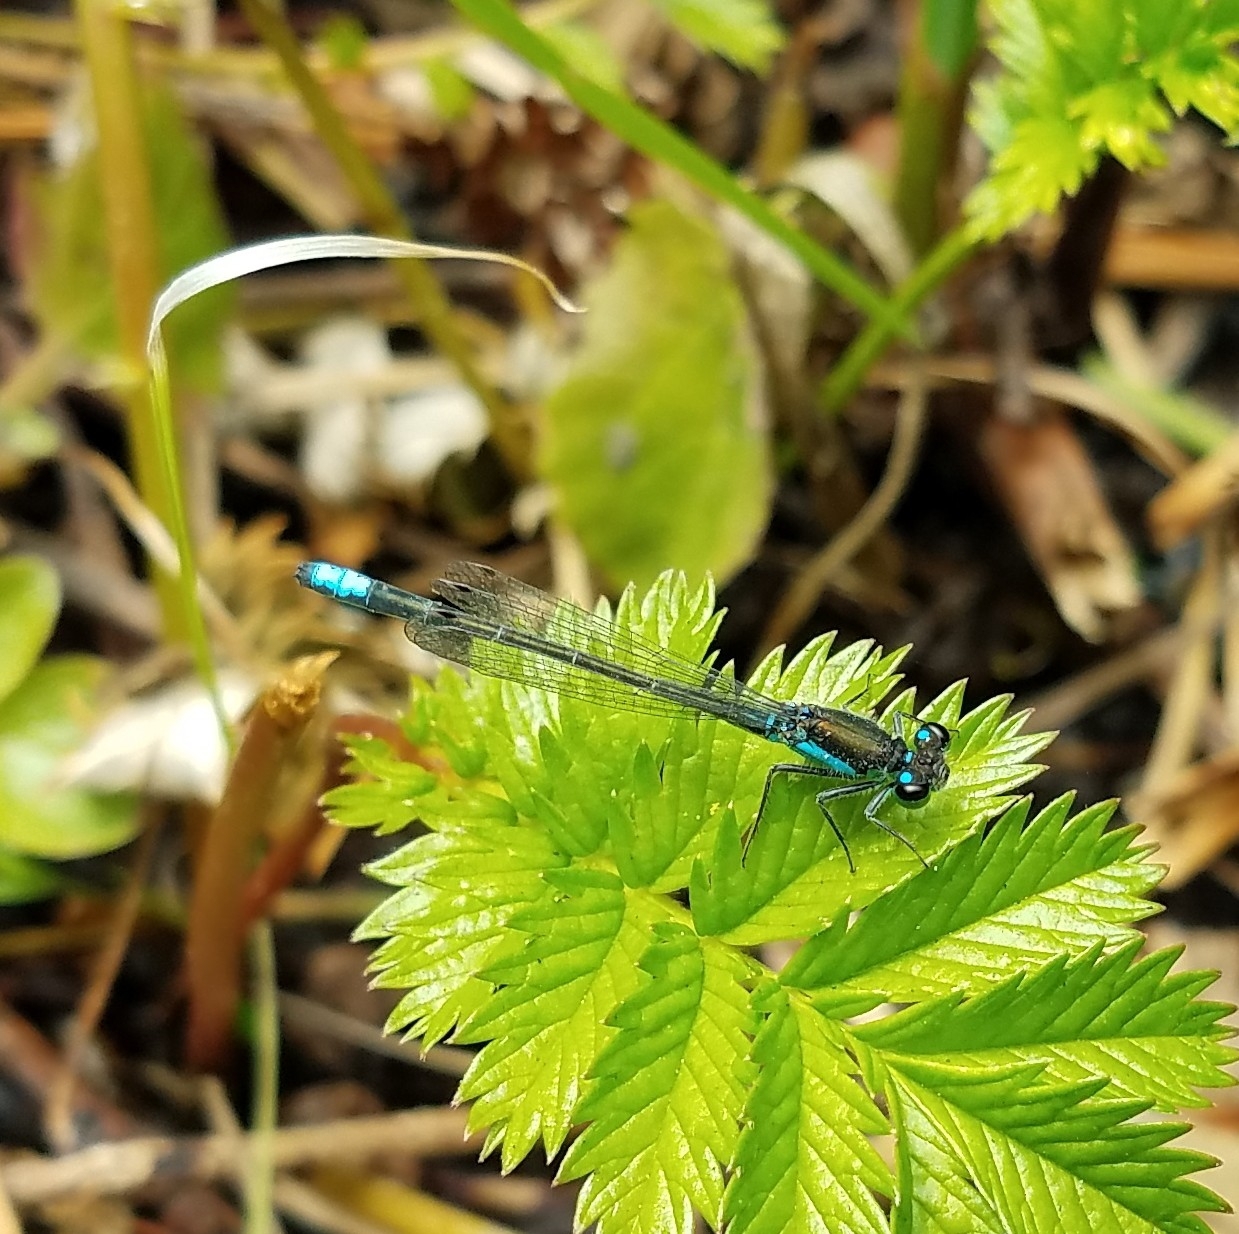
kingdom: Animalia
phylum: Arthropoda
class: Insecta
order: Odonata
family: Coenagrionidae
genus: Ischnura
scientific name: Ischnura gemina
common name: San francisco forktail
